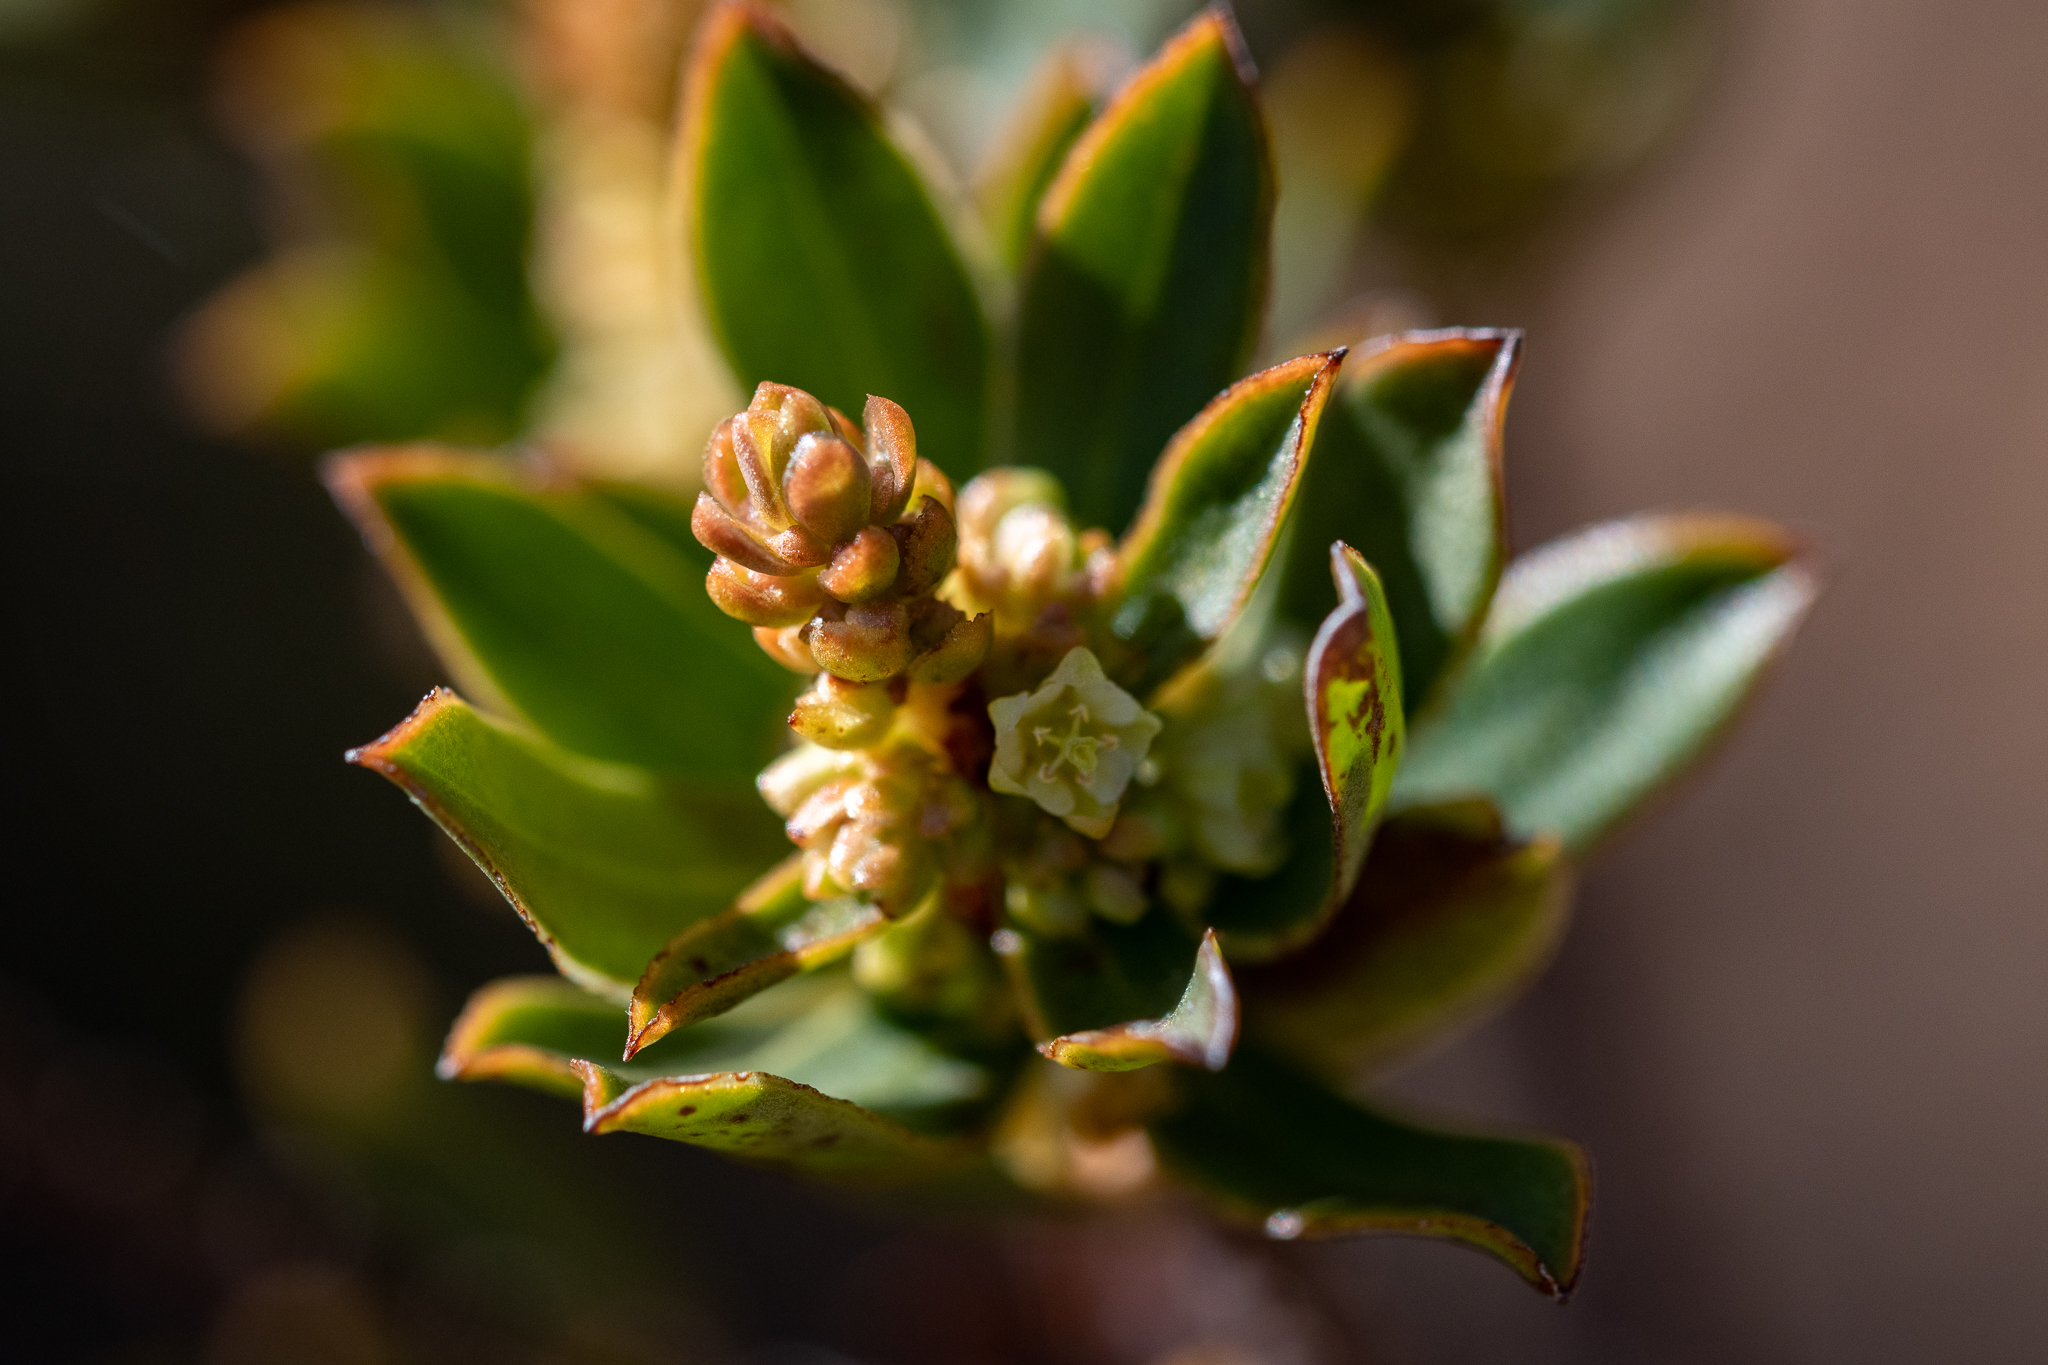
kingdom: Plantae
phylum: Tracheophyta
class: Magnoliopsida
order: Malpighiales
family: Peraceae
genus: Clutia
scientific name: Clutia alaternoides
